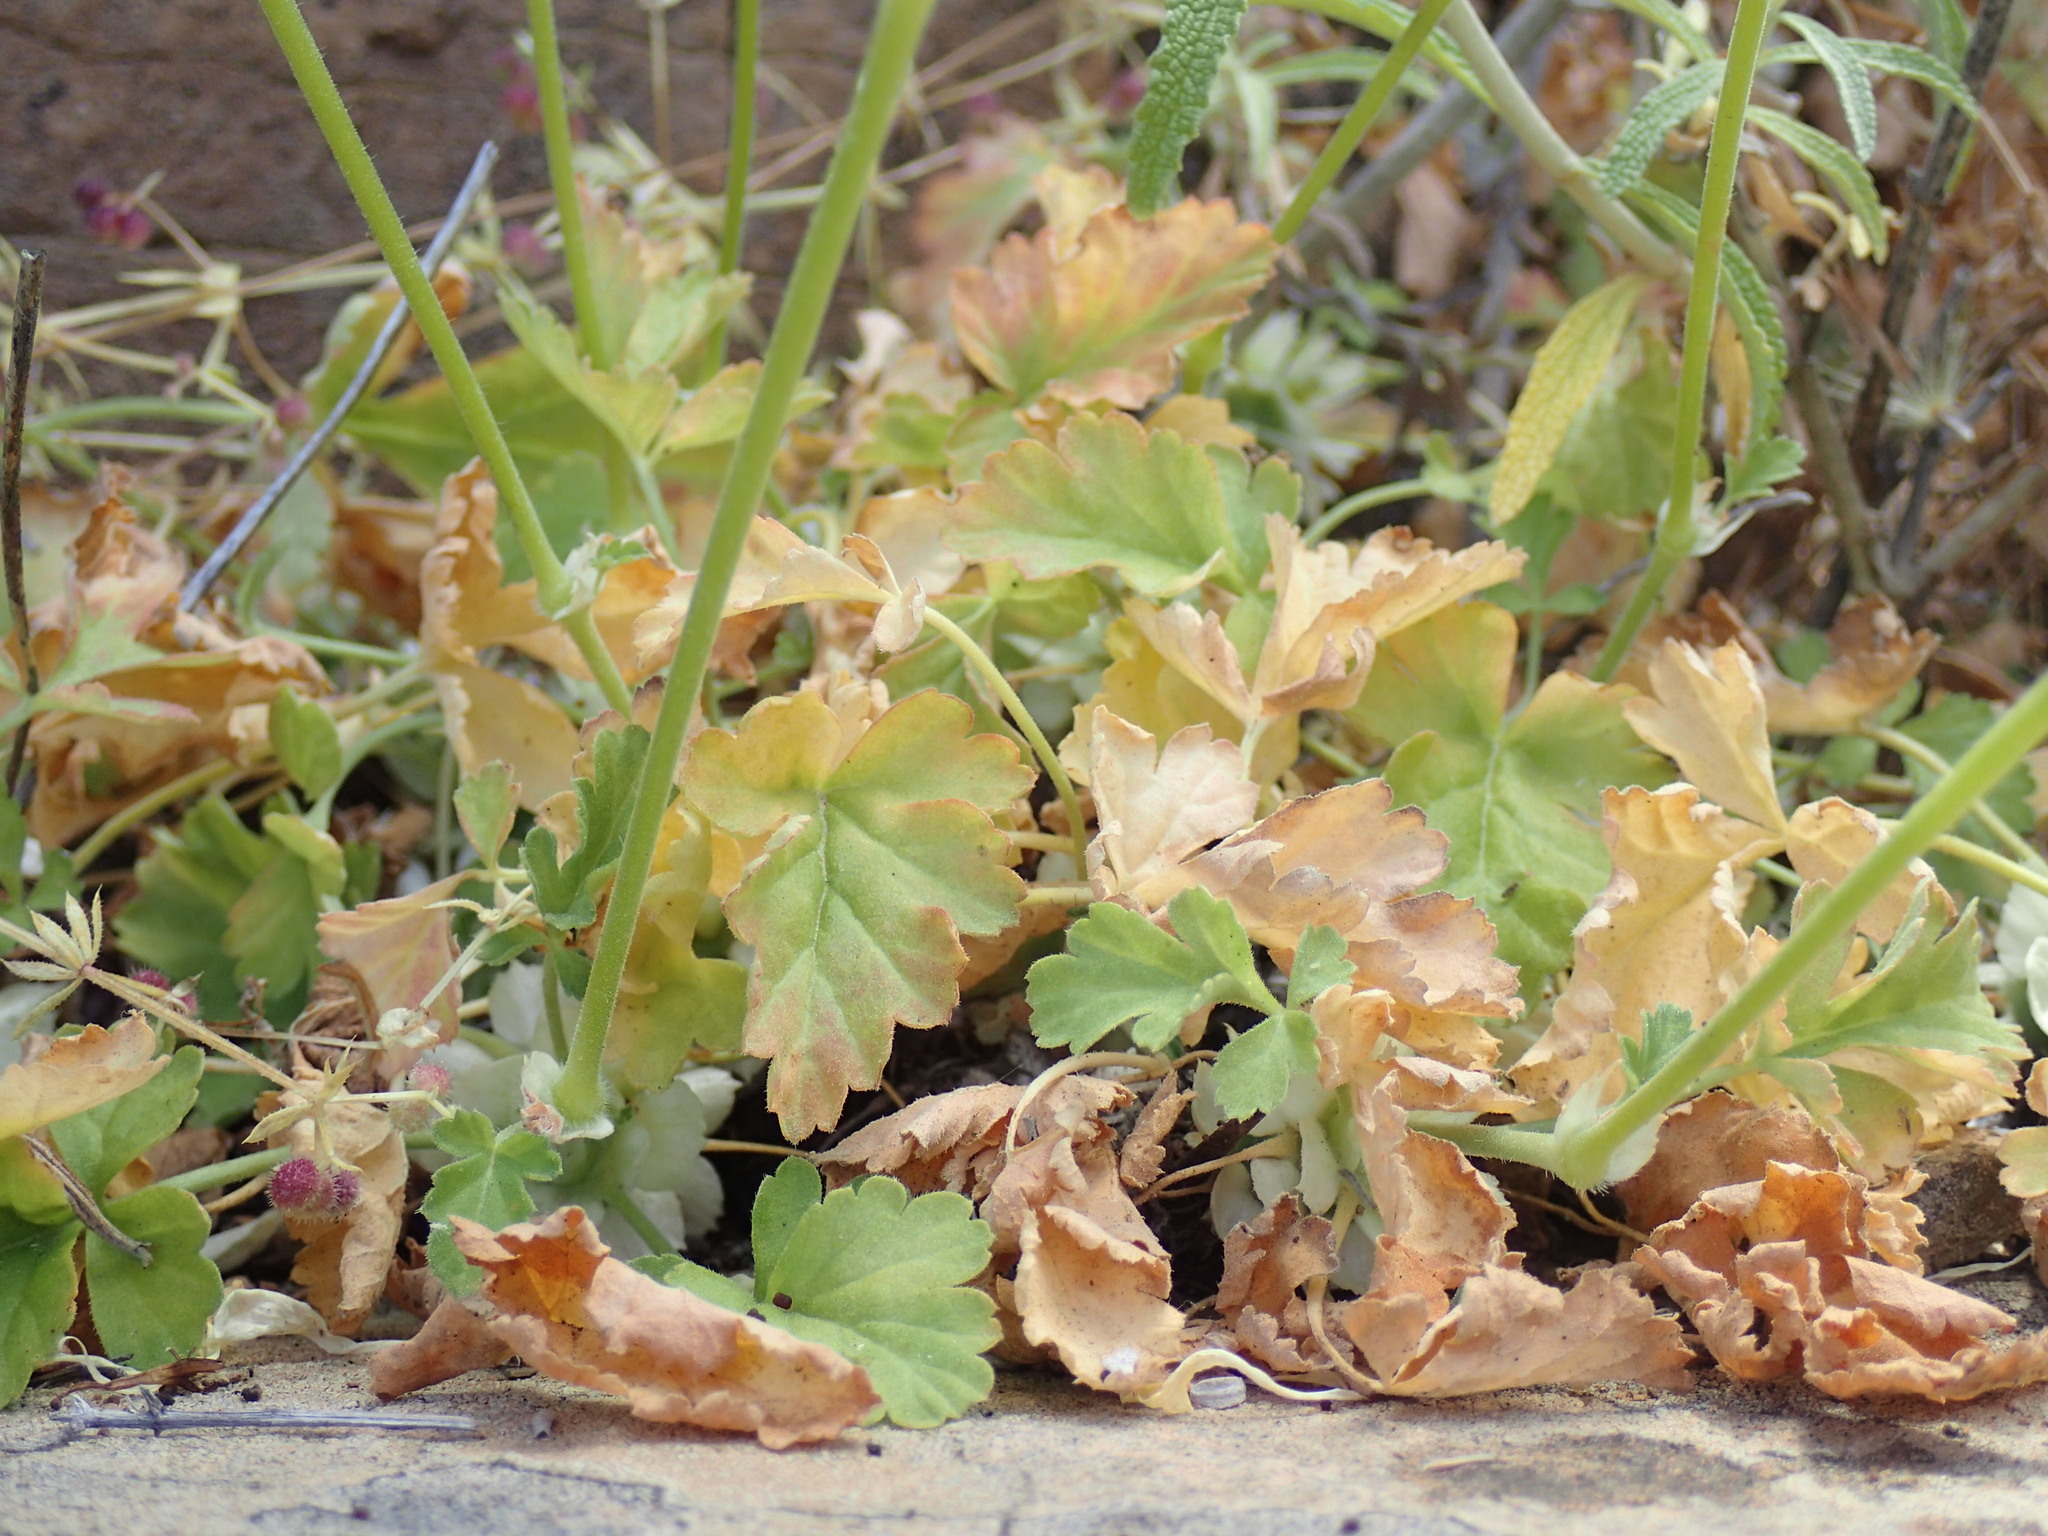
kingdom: Plantae
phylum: Tracheophyta
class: Magnoliopsida
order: Geraniales
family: Geraniaceae
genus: Pelargonium
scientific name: Pelargonium stipulaceum
